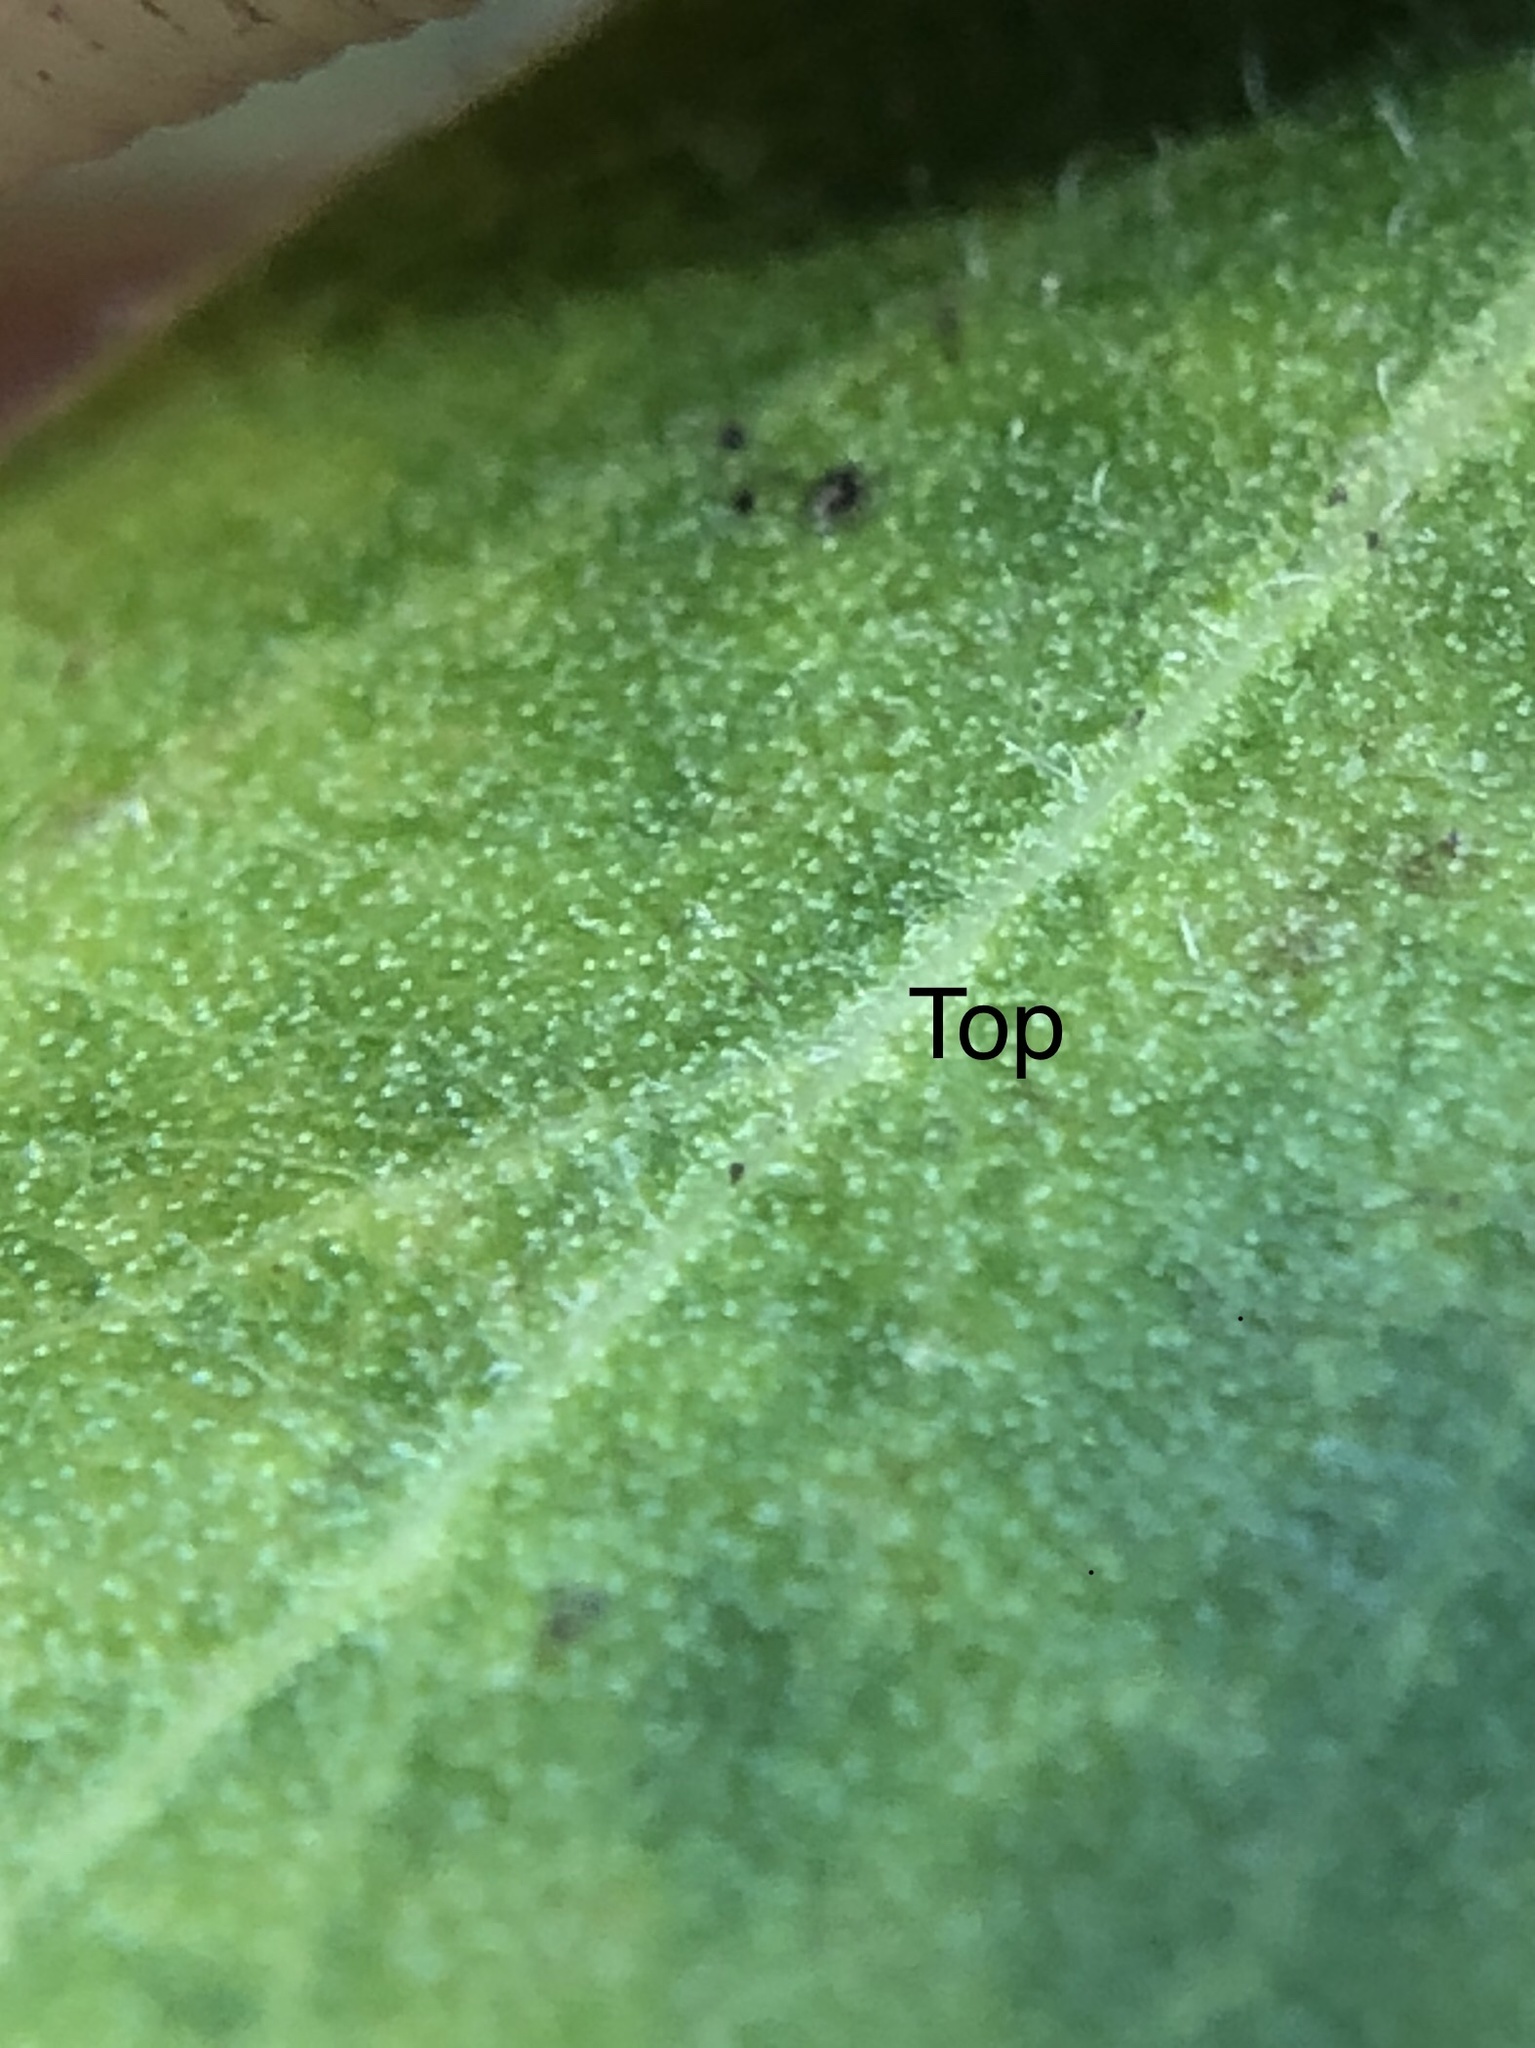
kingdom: Plantae
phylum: Tracheophyta
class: Magnoliopsida
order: Ericales
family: Ericaceae
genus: Arctostaphylos
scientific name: Arctostaphylos virgata
